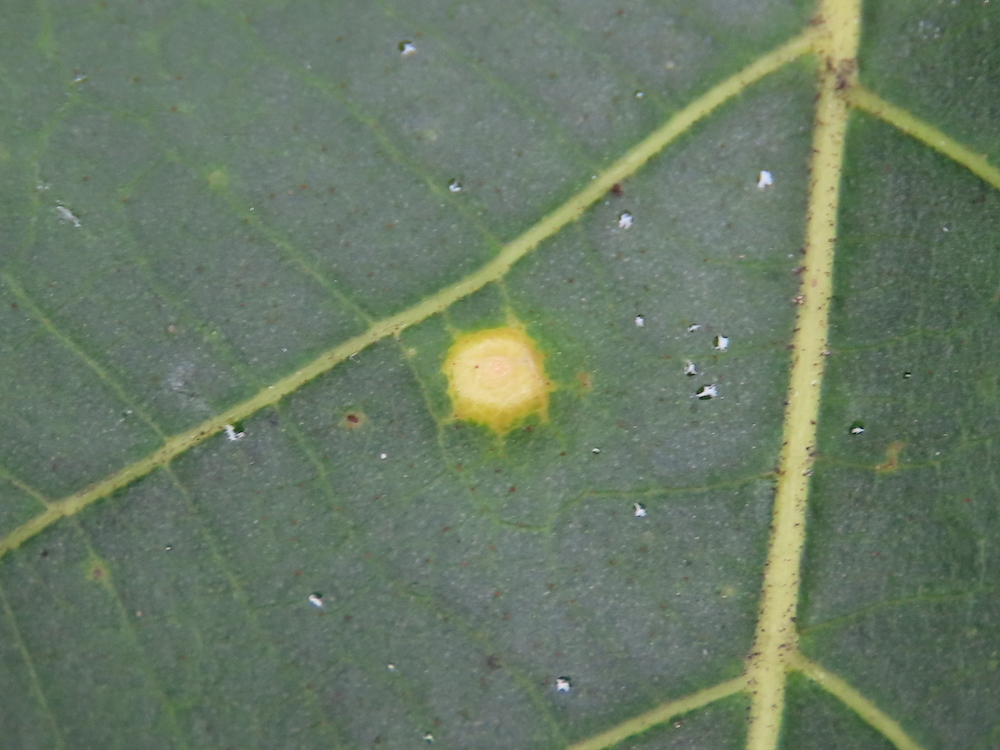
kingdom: Animalia
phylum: Arthropoda
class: Insecta
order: Diptera
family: Cecidomyiidae
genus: Caryomyia
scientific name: Caryomyia biretta
